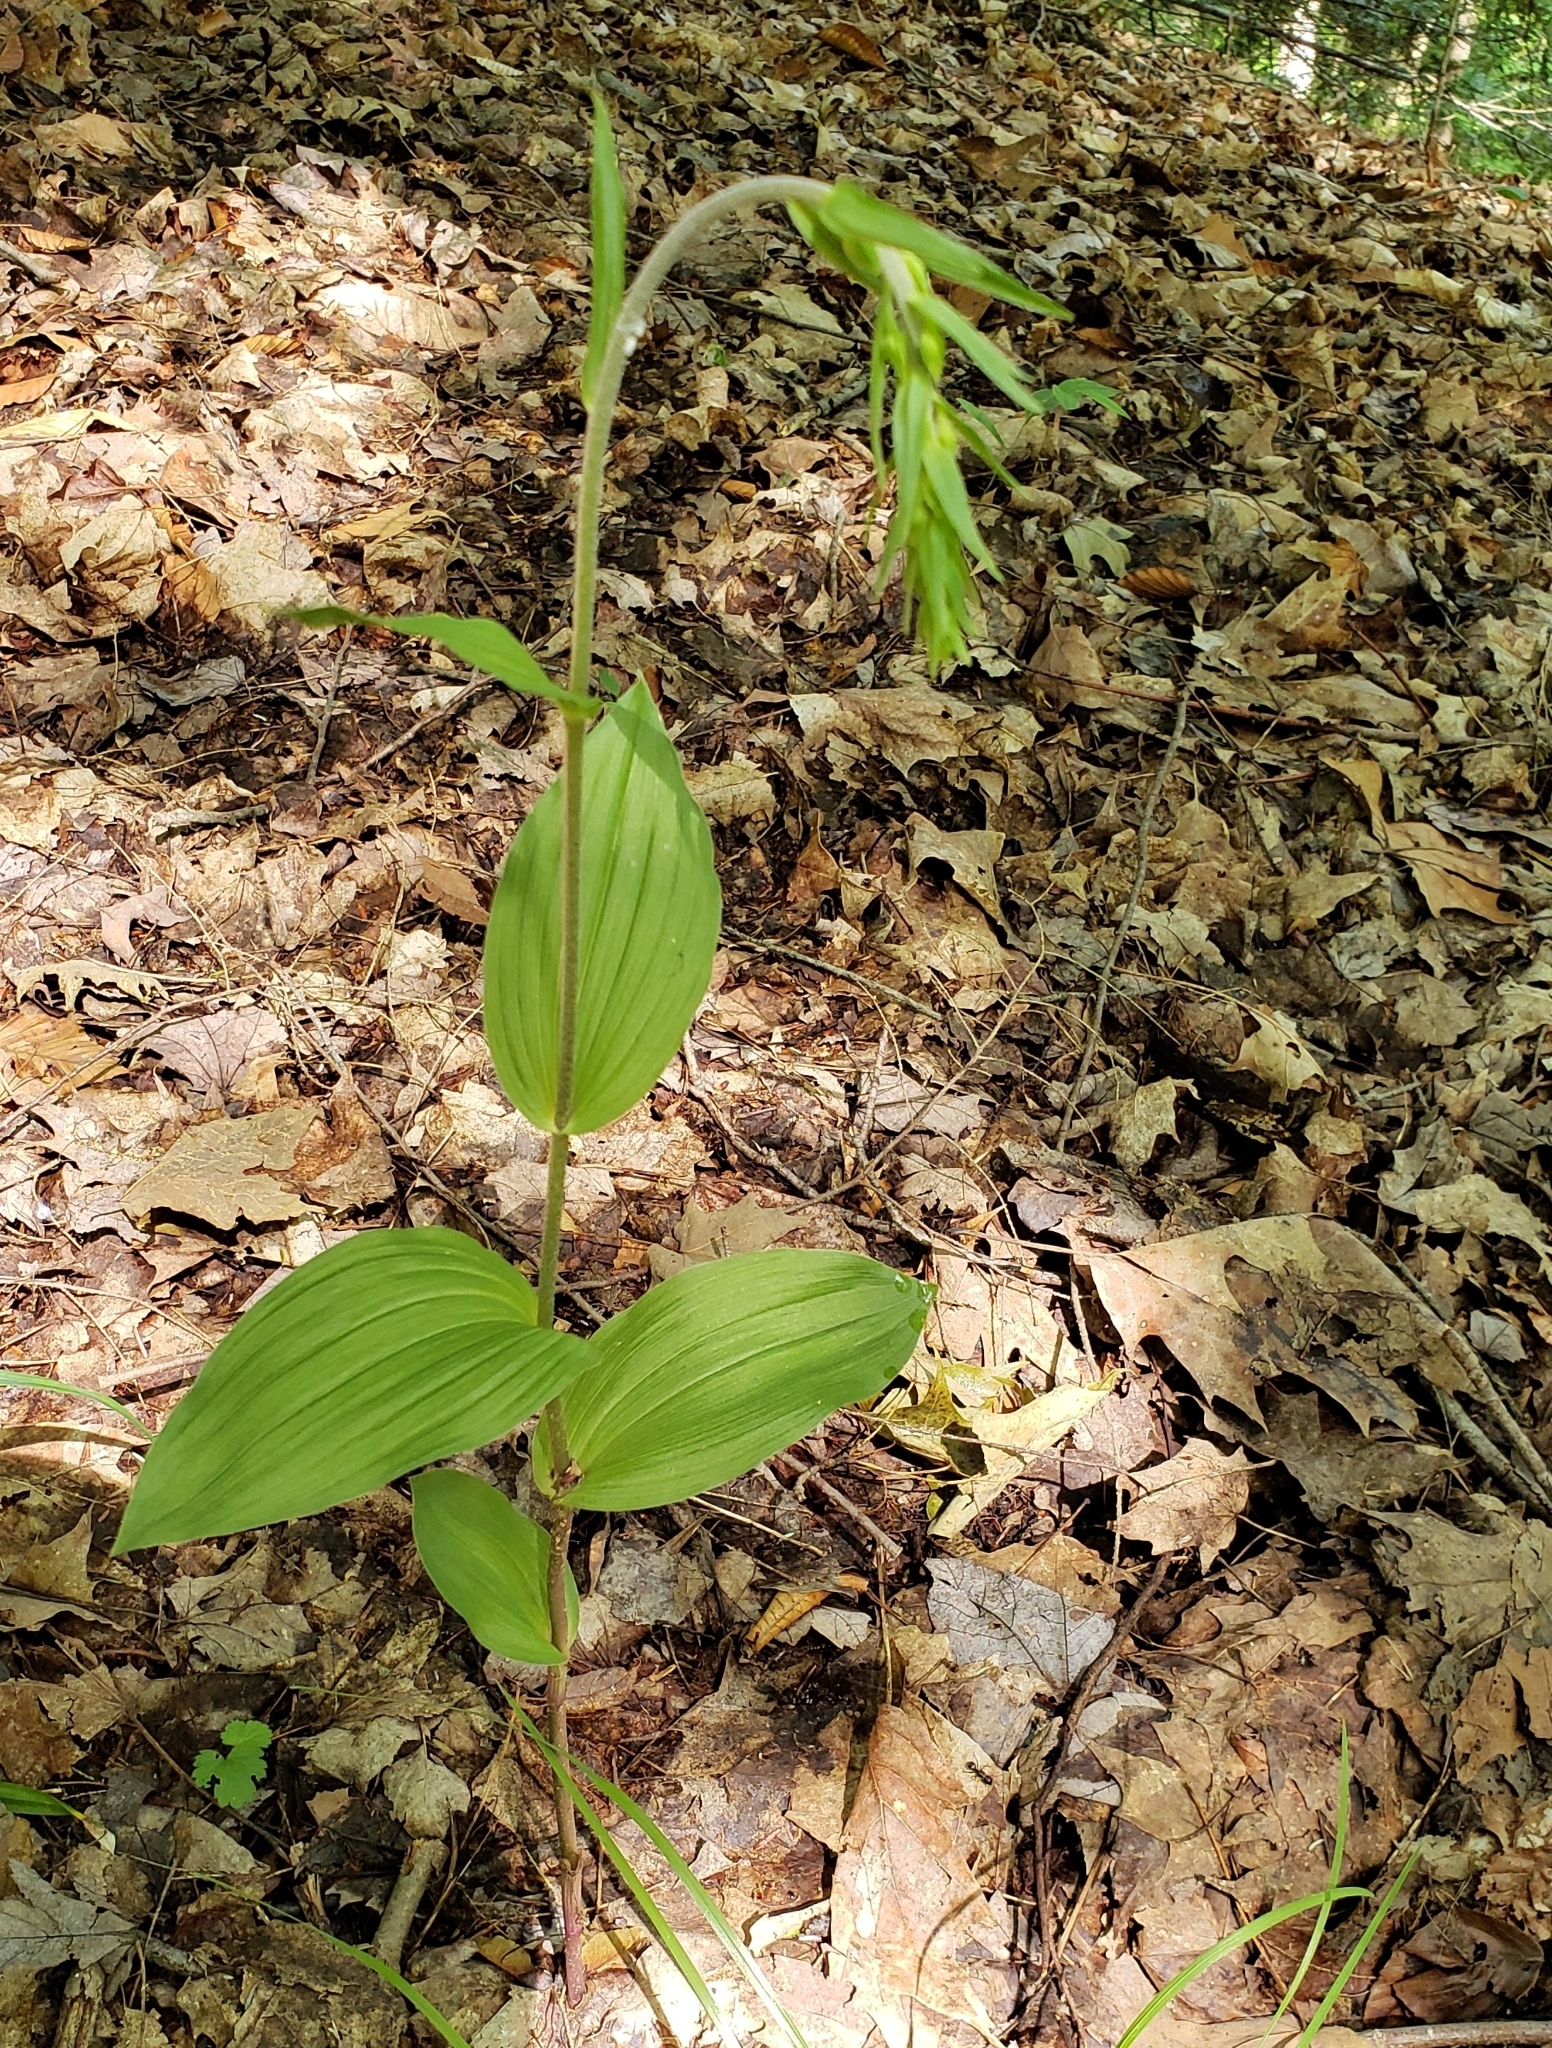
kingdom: Plantae
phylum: Tracheophyta
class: Liliopsida
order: Asparagales
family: Orchidaceae
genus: Epipactis
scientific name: Epipactis helleborine
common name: Broad-leaved helleborine
